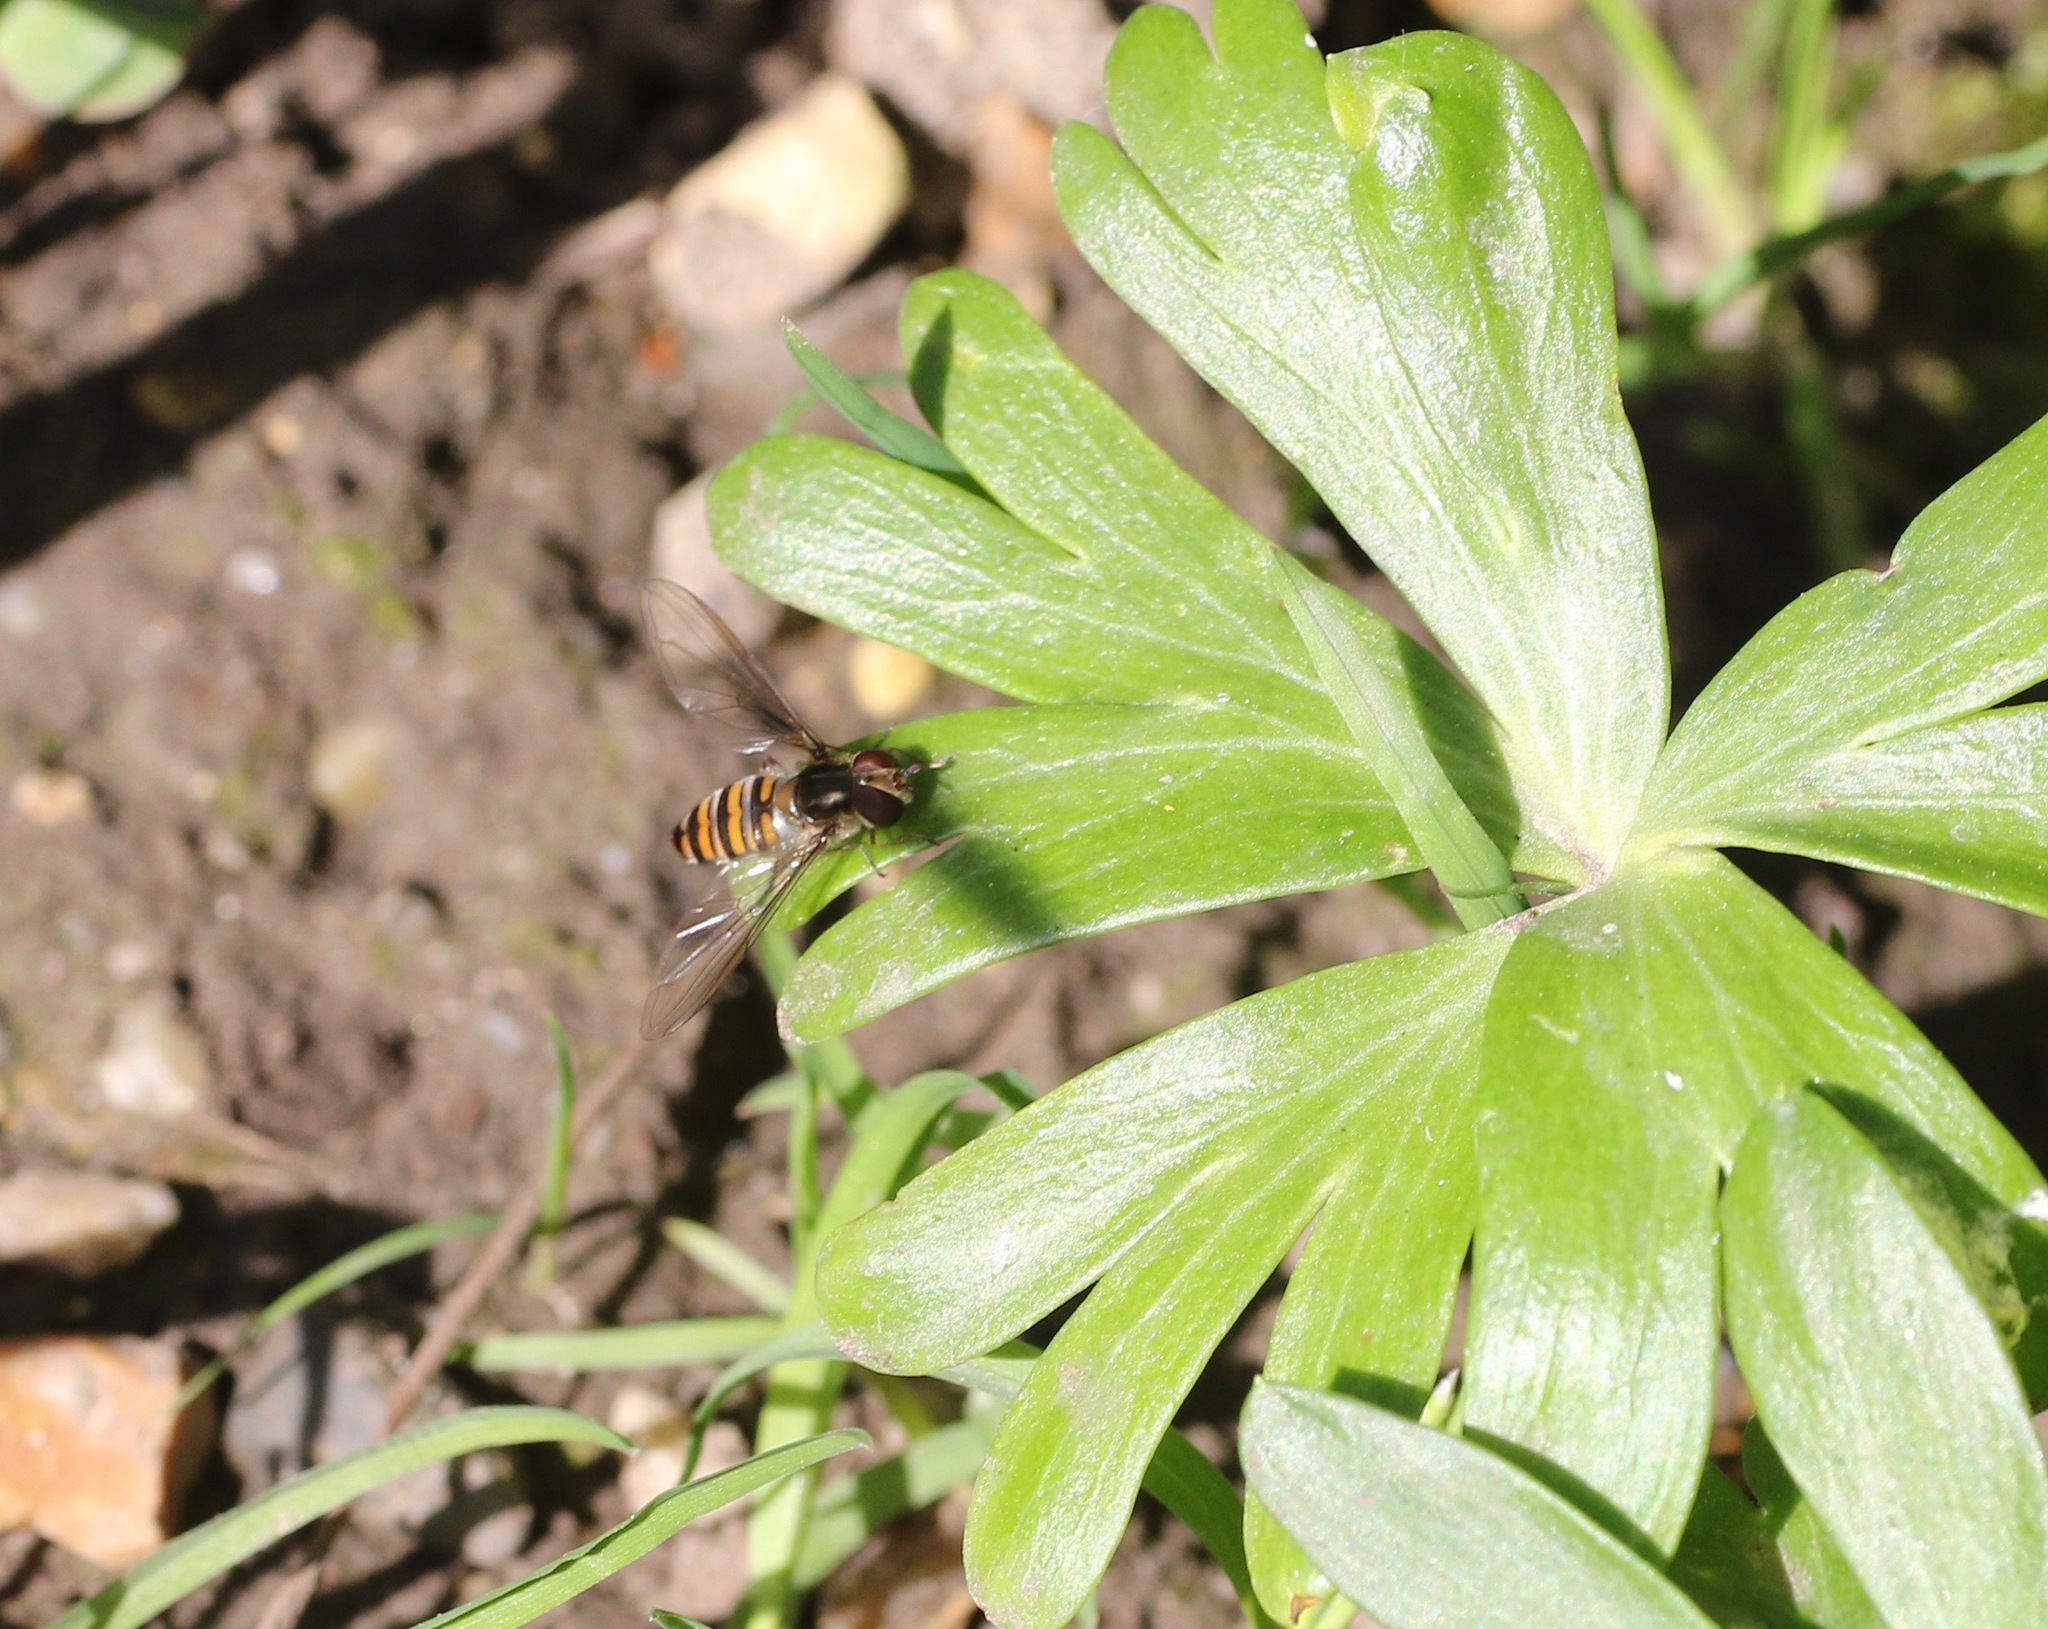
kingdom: Animalia
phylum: Arthropoda
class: Insecta
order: Diptera
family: Syrphidae
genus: Episyrphus
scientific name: Episyrphus balteatus
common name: Marmalade hoverfly
